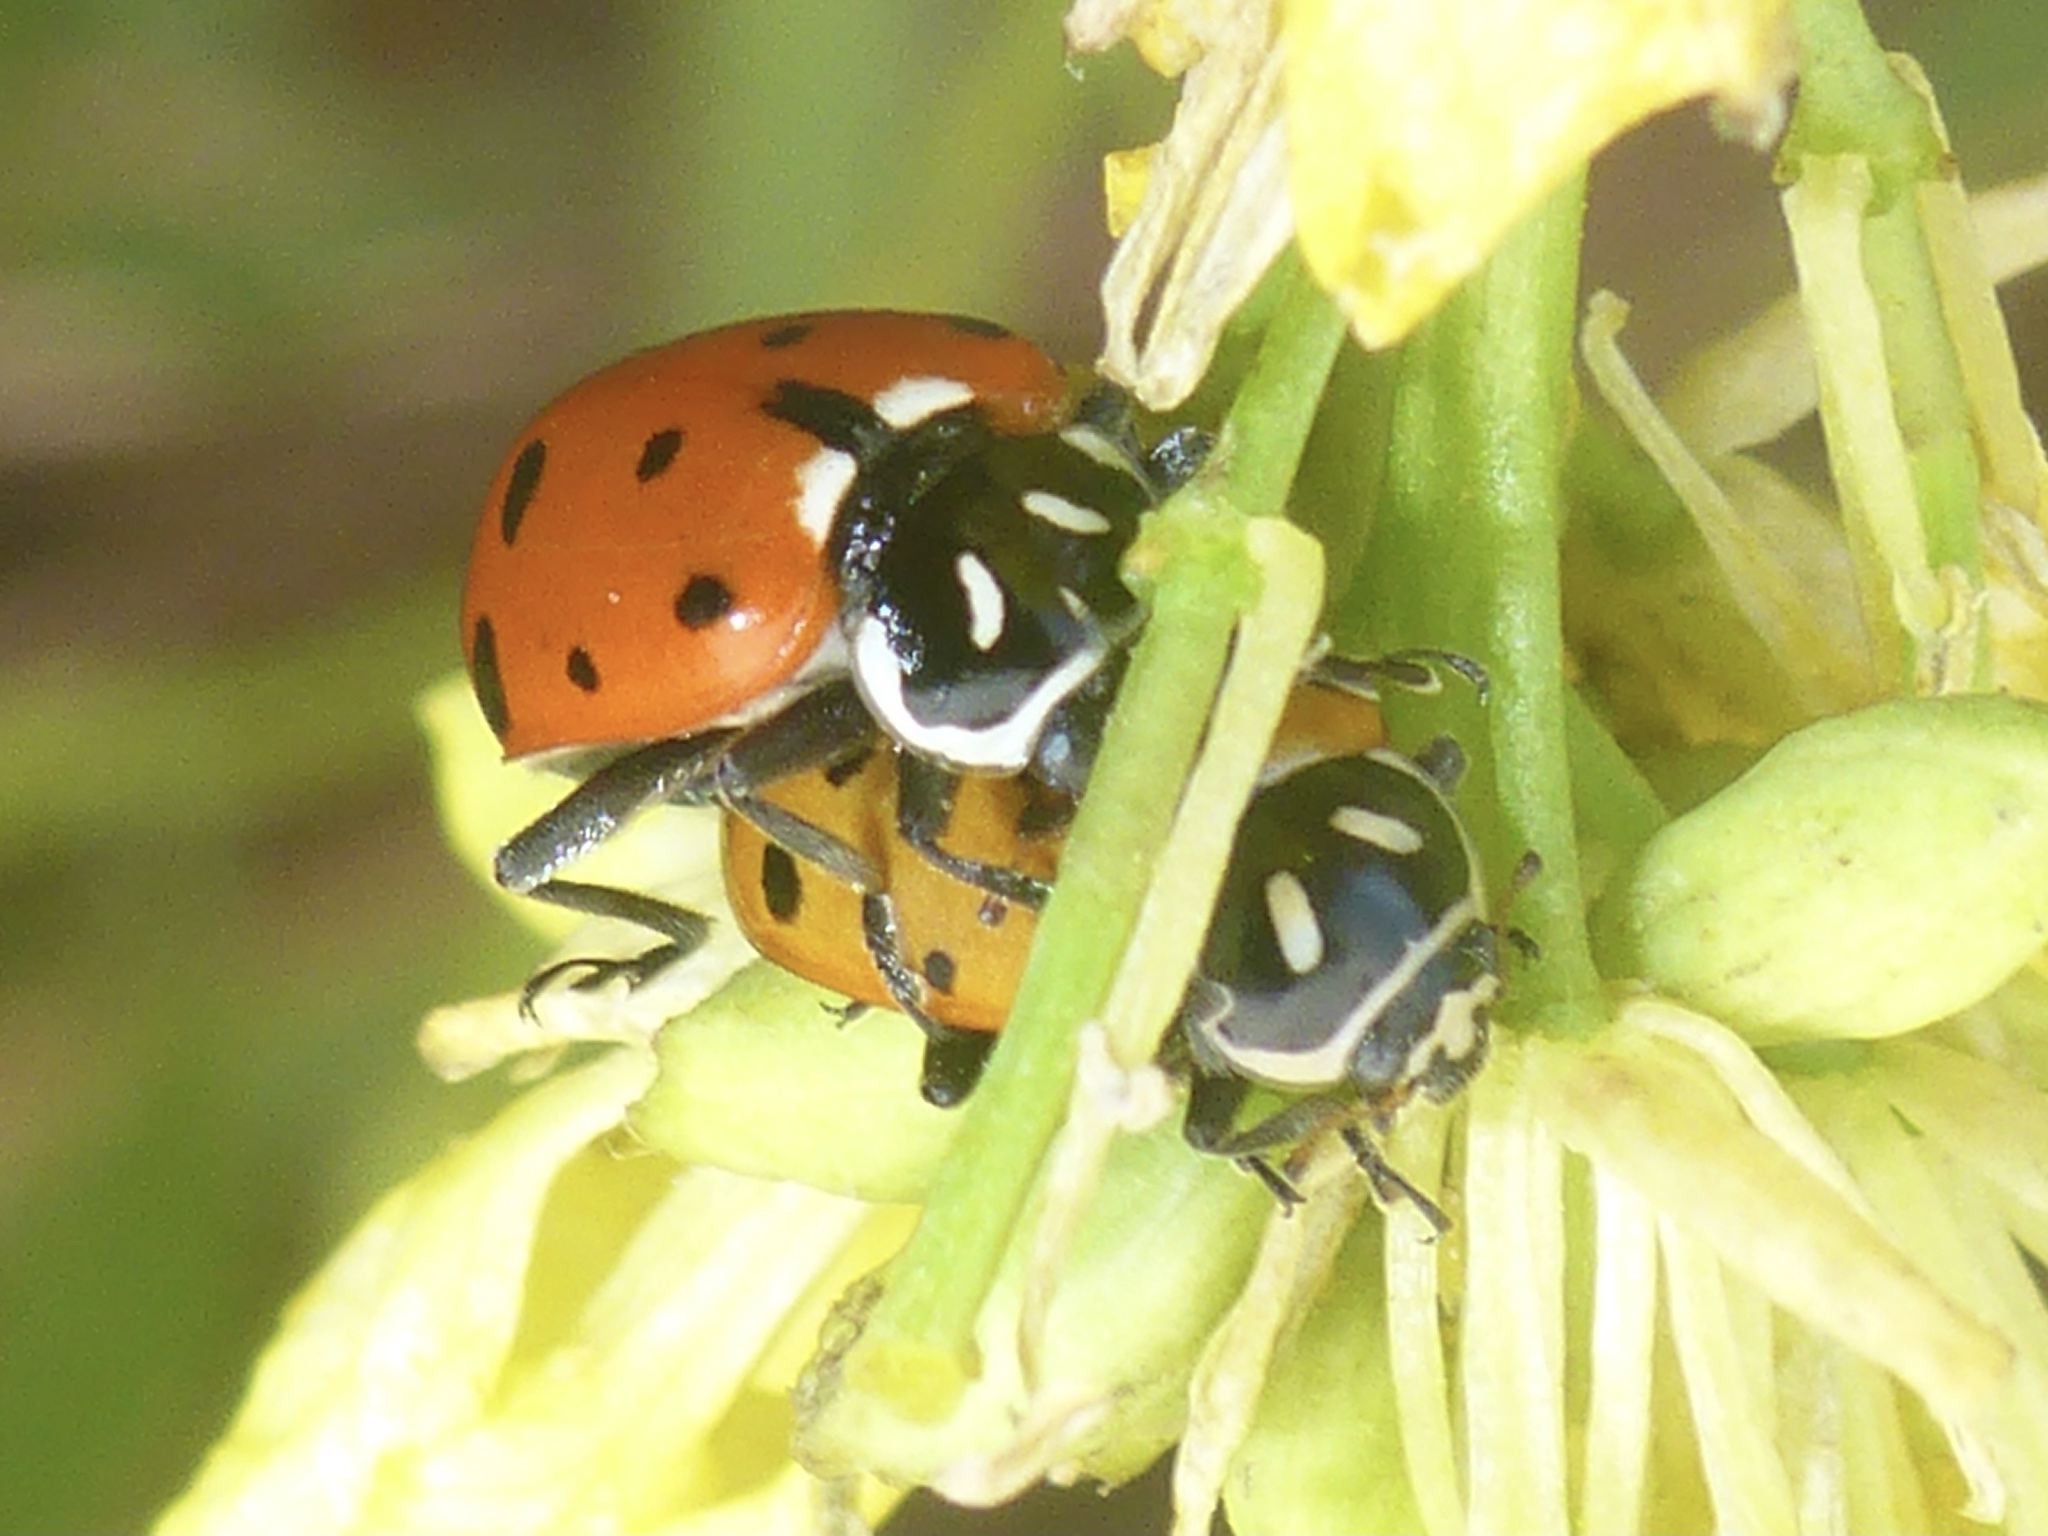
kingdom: Animalia
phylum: Arthropoda
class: Insecta
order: Coleoptera
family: Coccinellidae
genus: Hippodamia
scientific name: Hippodamia convergens
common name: Convergent lady beetle
